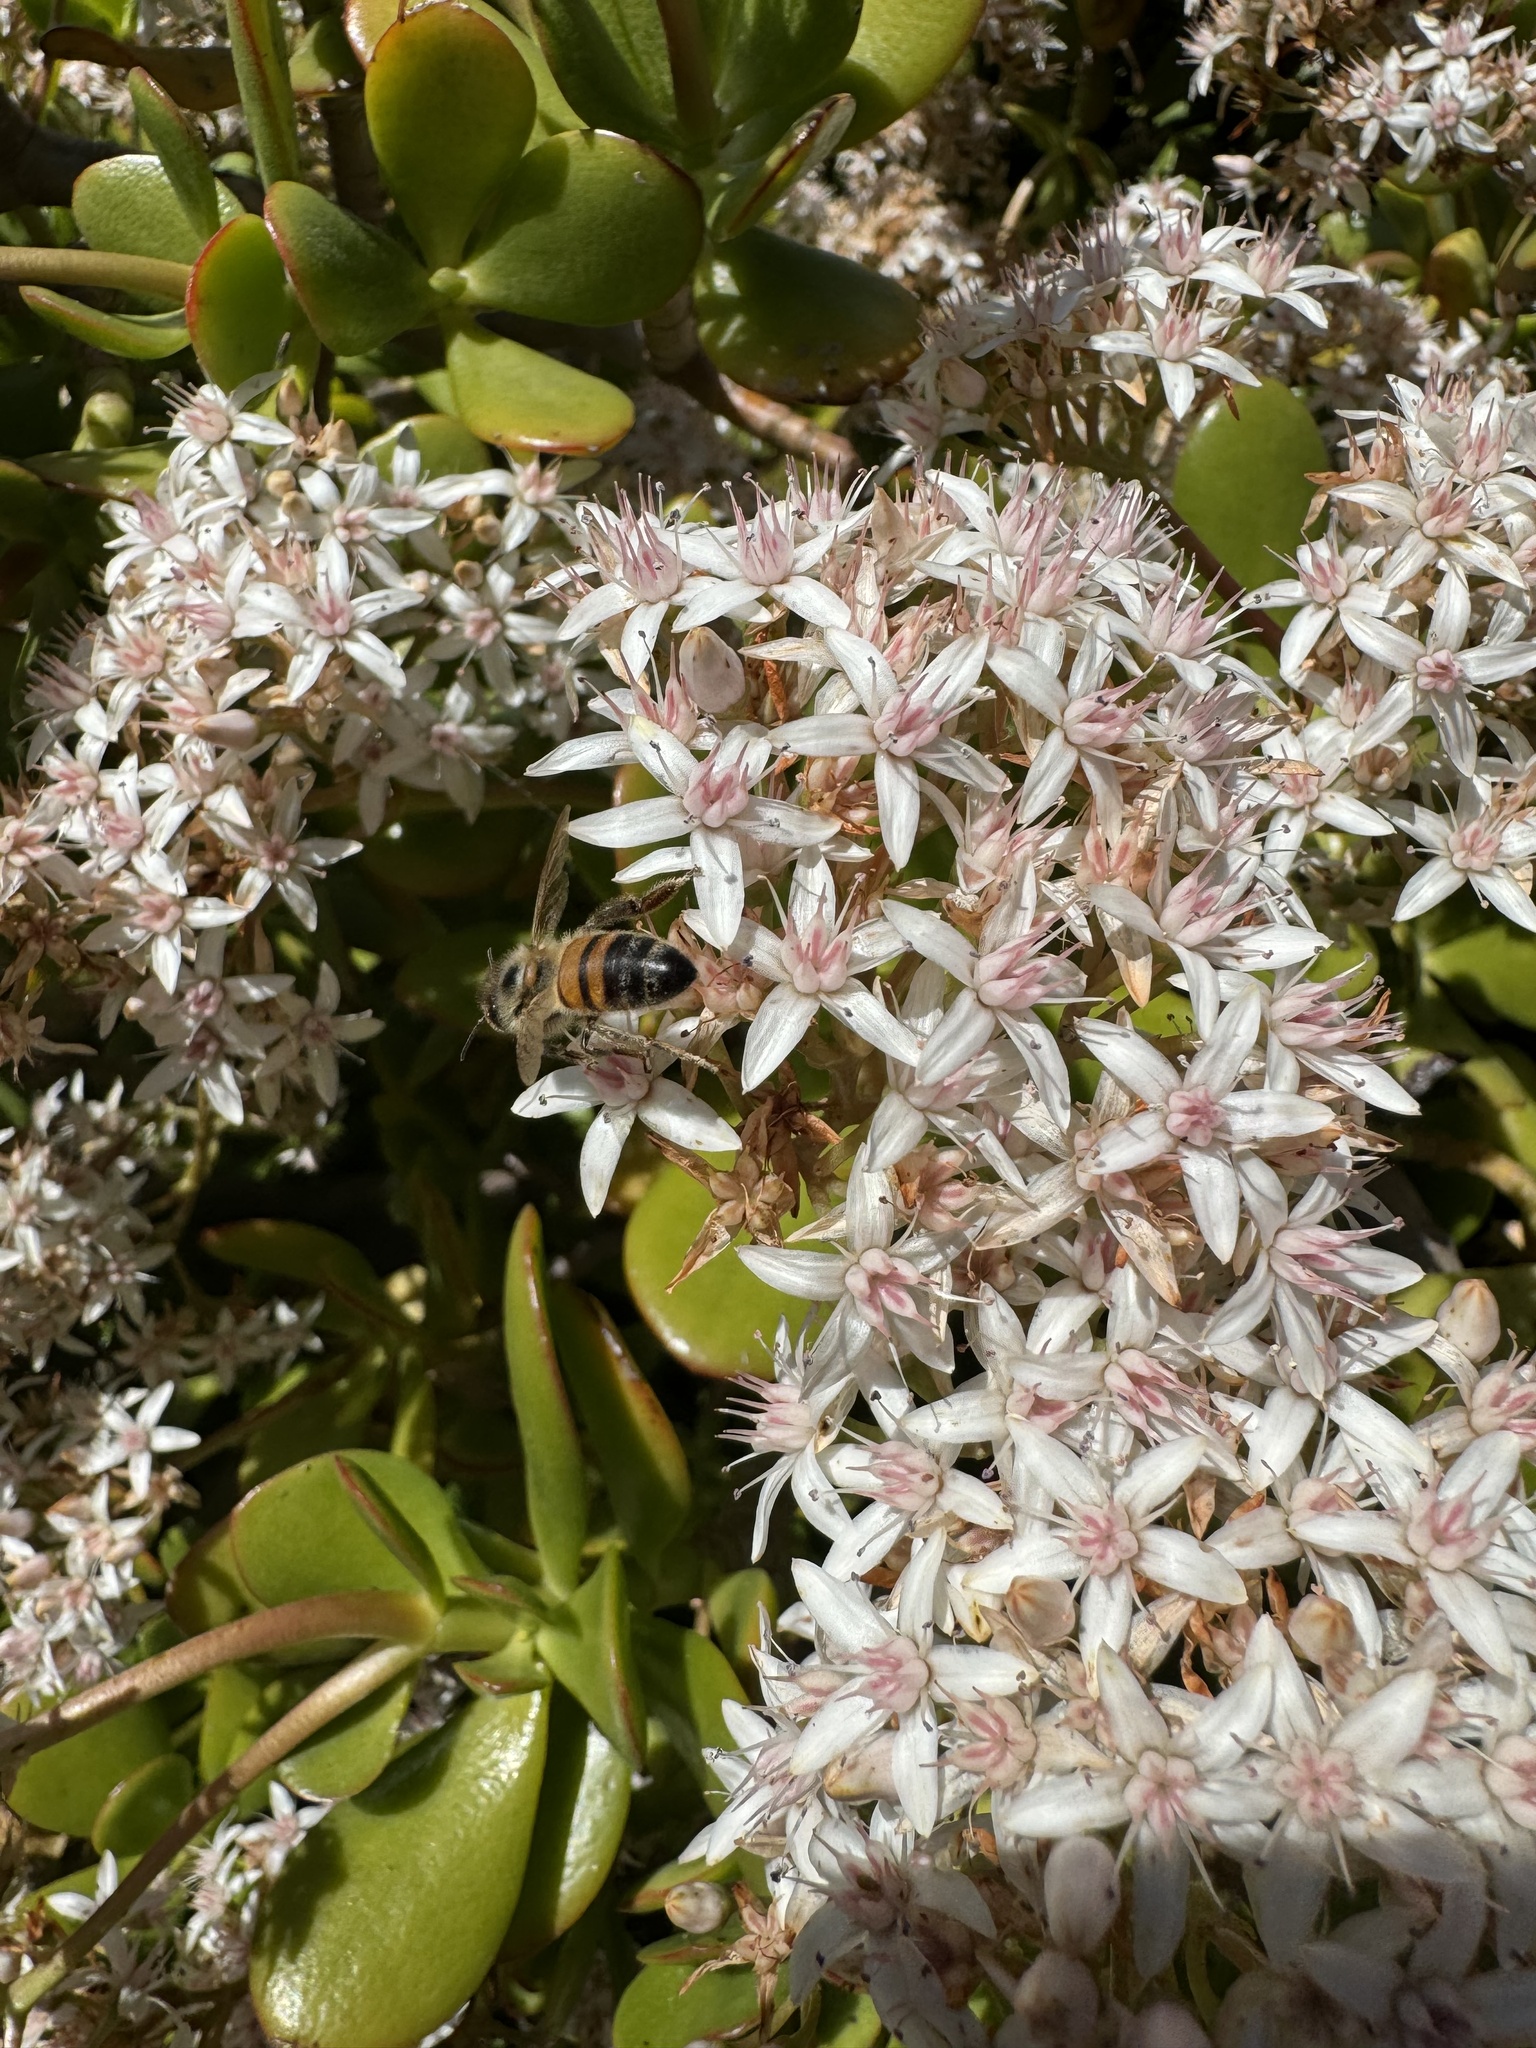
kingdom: Animalia
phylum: Arthropoda
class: Insecta
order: Hymenoptera
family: Apidae
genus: Apis
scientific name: Apis mellifera
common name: Honey bee
